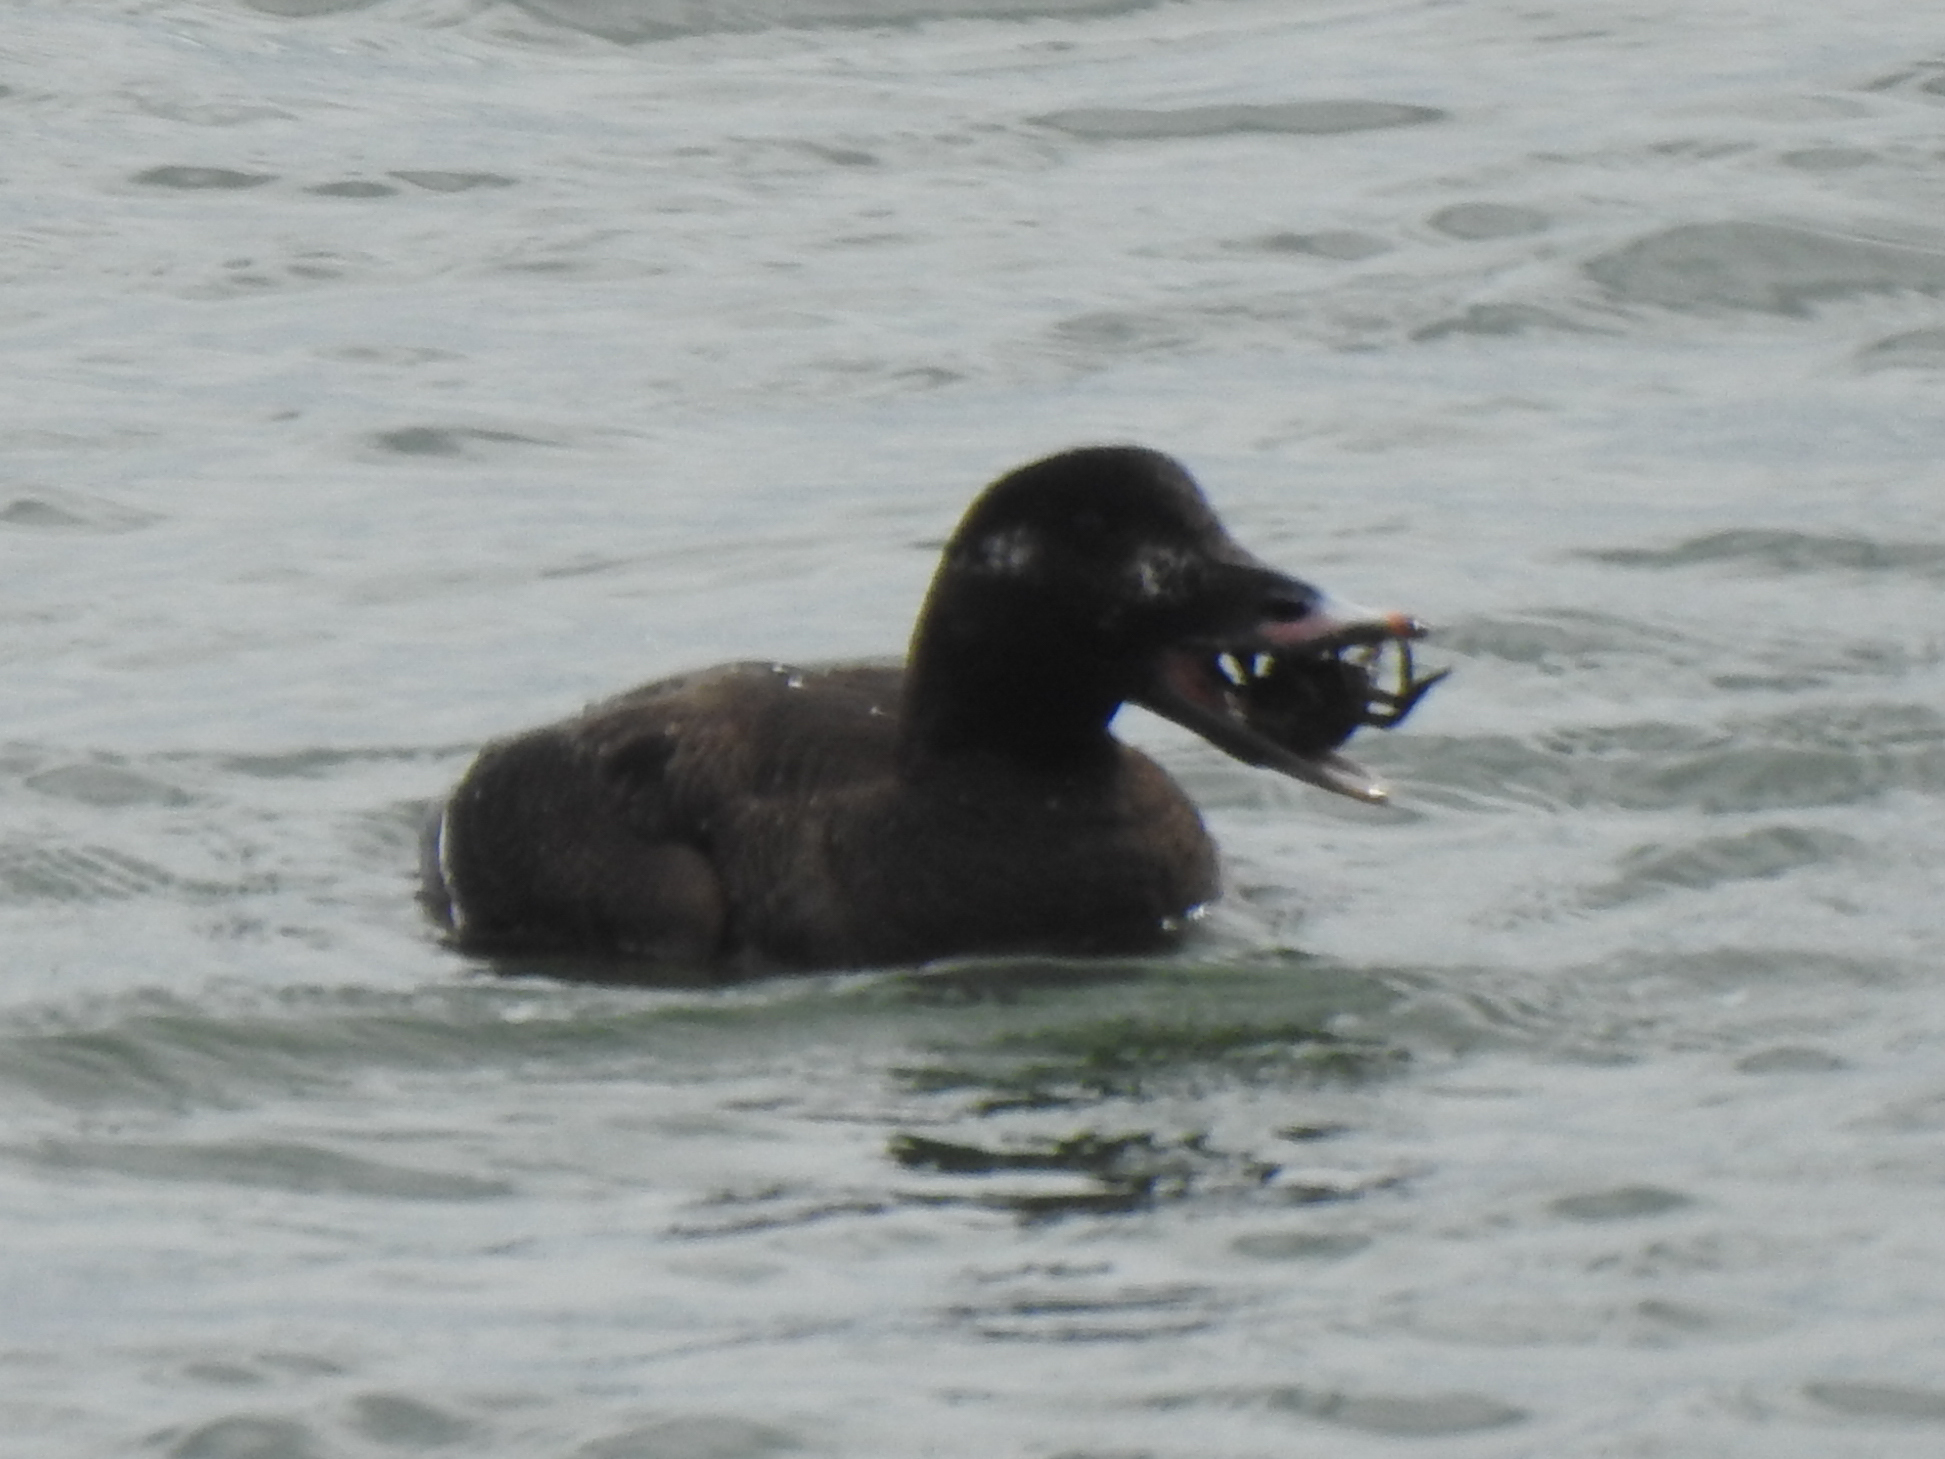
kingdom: Animalia
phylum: Chordata
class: Aves
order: Anseriformes
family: Anatidae
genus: Melanitta
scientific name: Melanitta deglandi
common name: White-winged scoter
